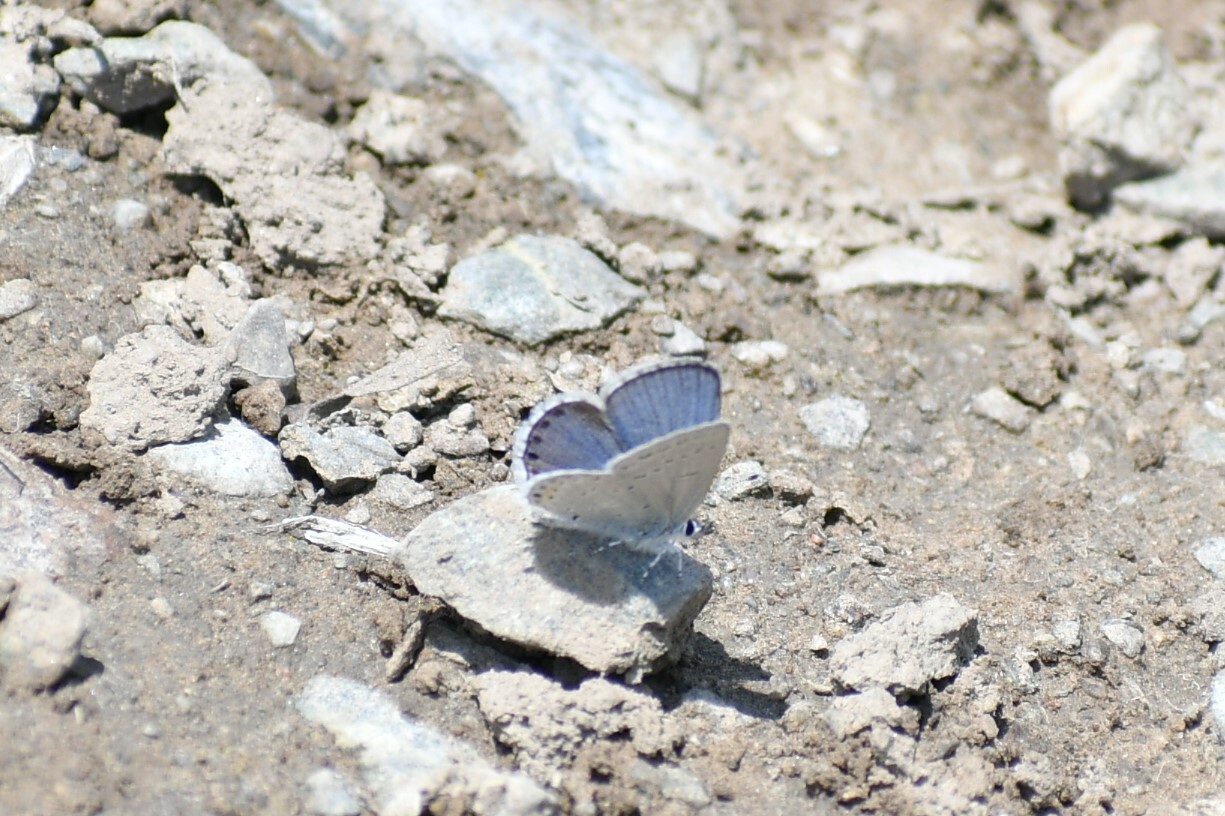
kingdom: Animalia
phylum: Arthropoda
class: Insecta
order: Lepidoptera
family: Lycaenidae
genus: Elkalyce
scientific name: Elkalyce amyntula
